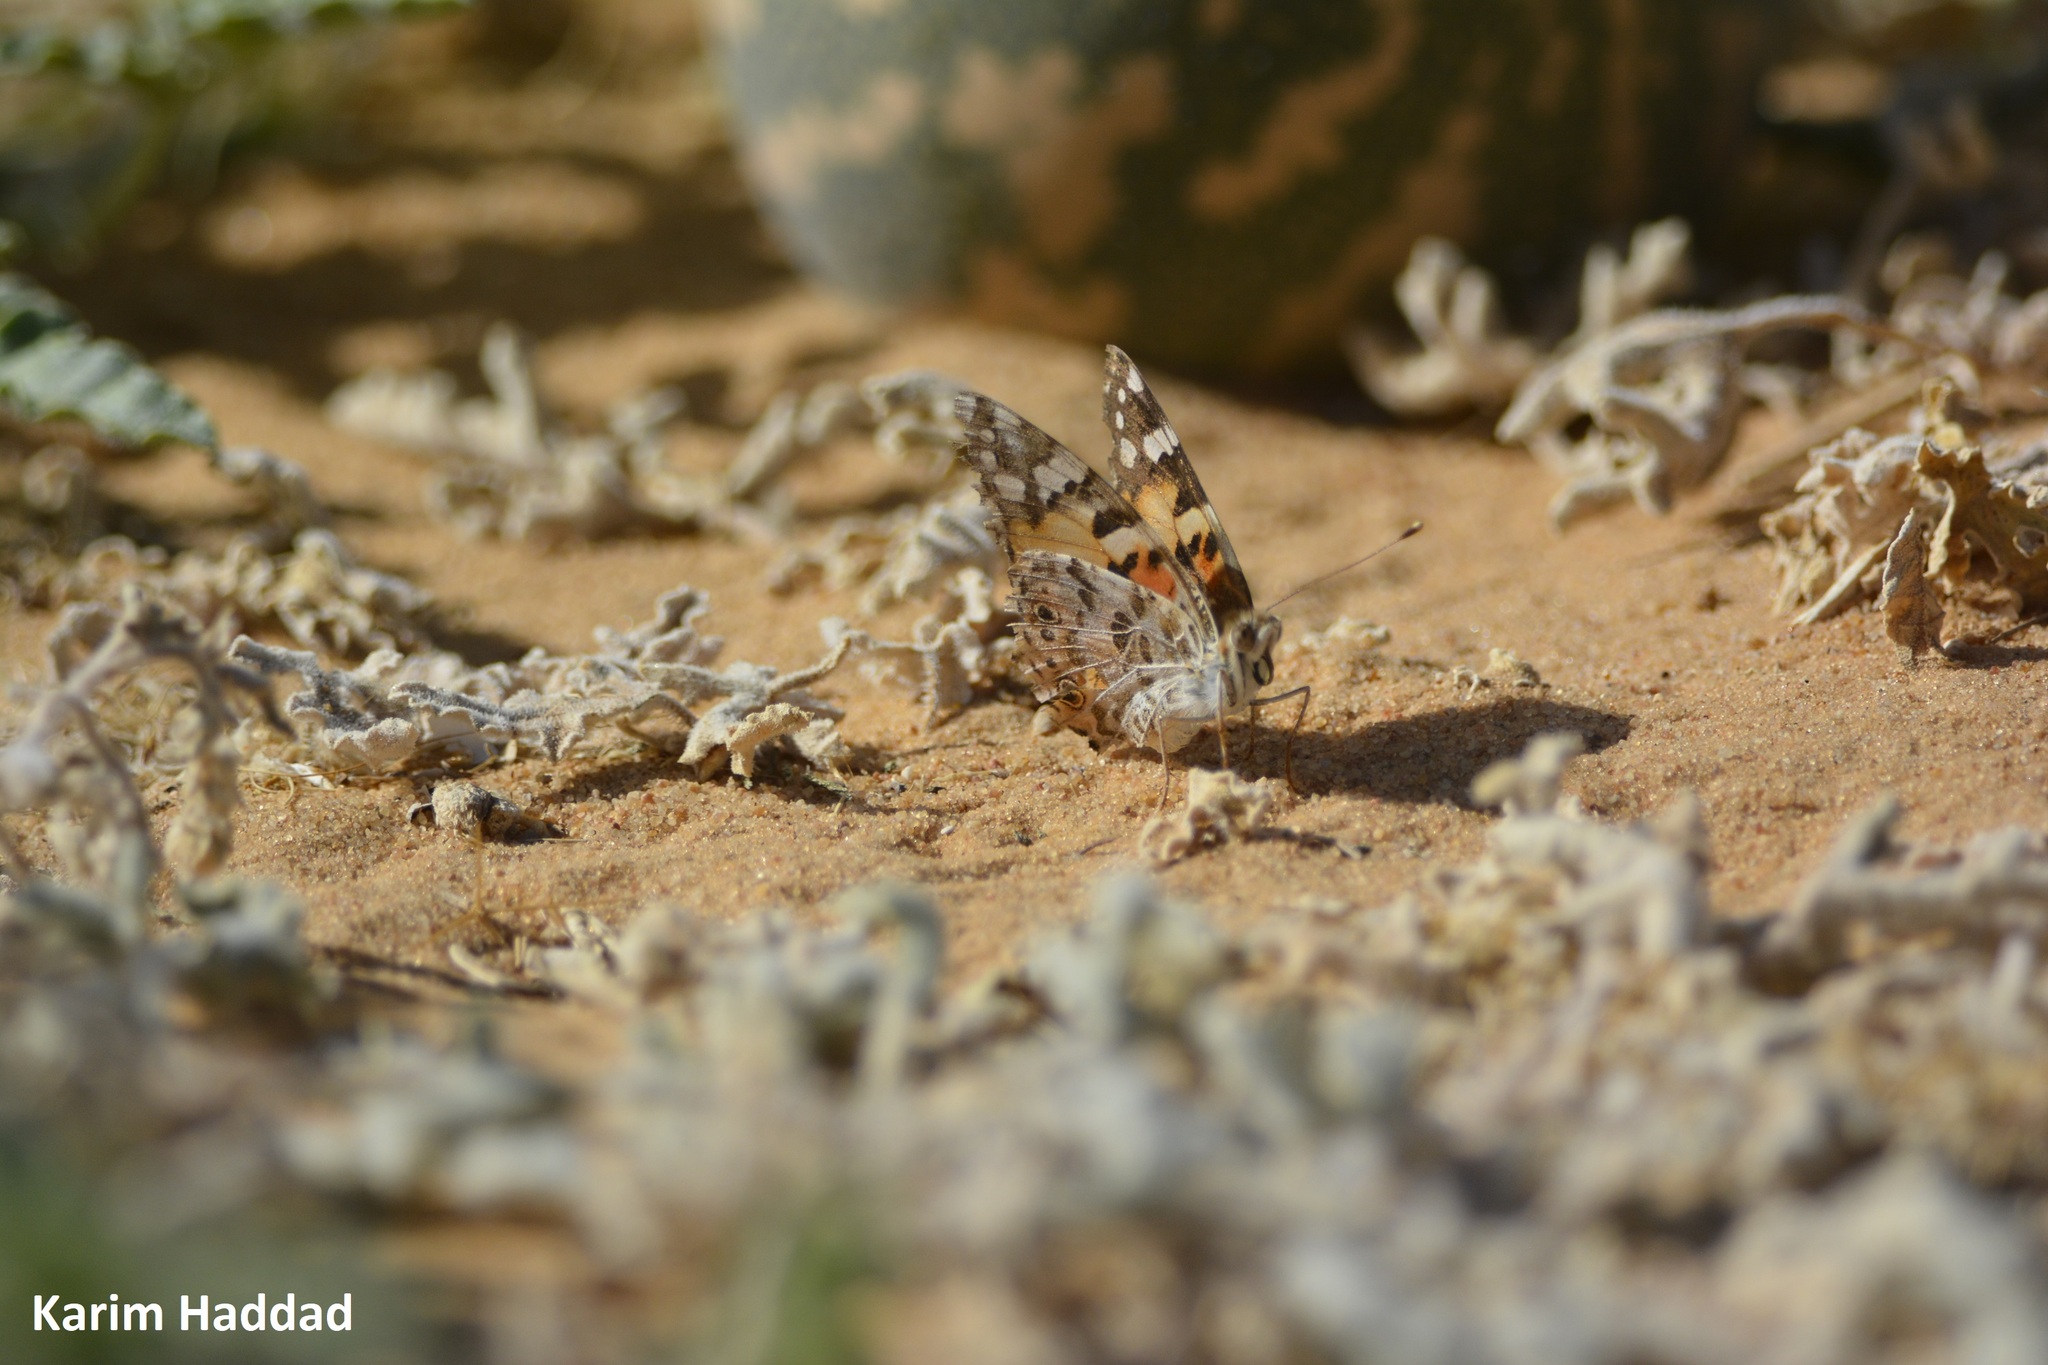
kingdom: Animalia
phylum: Arthropoda
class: Insecta
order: Lepidoptera
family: Nymphalidae
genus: Vanessa
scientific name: Vanessa cardui
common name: Painted lady
